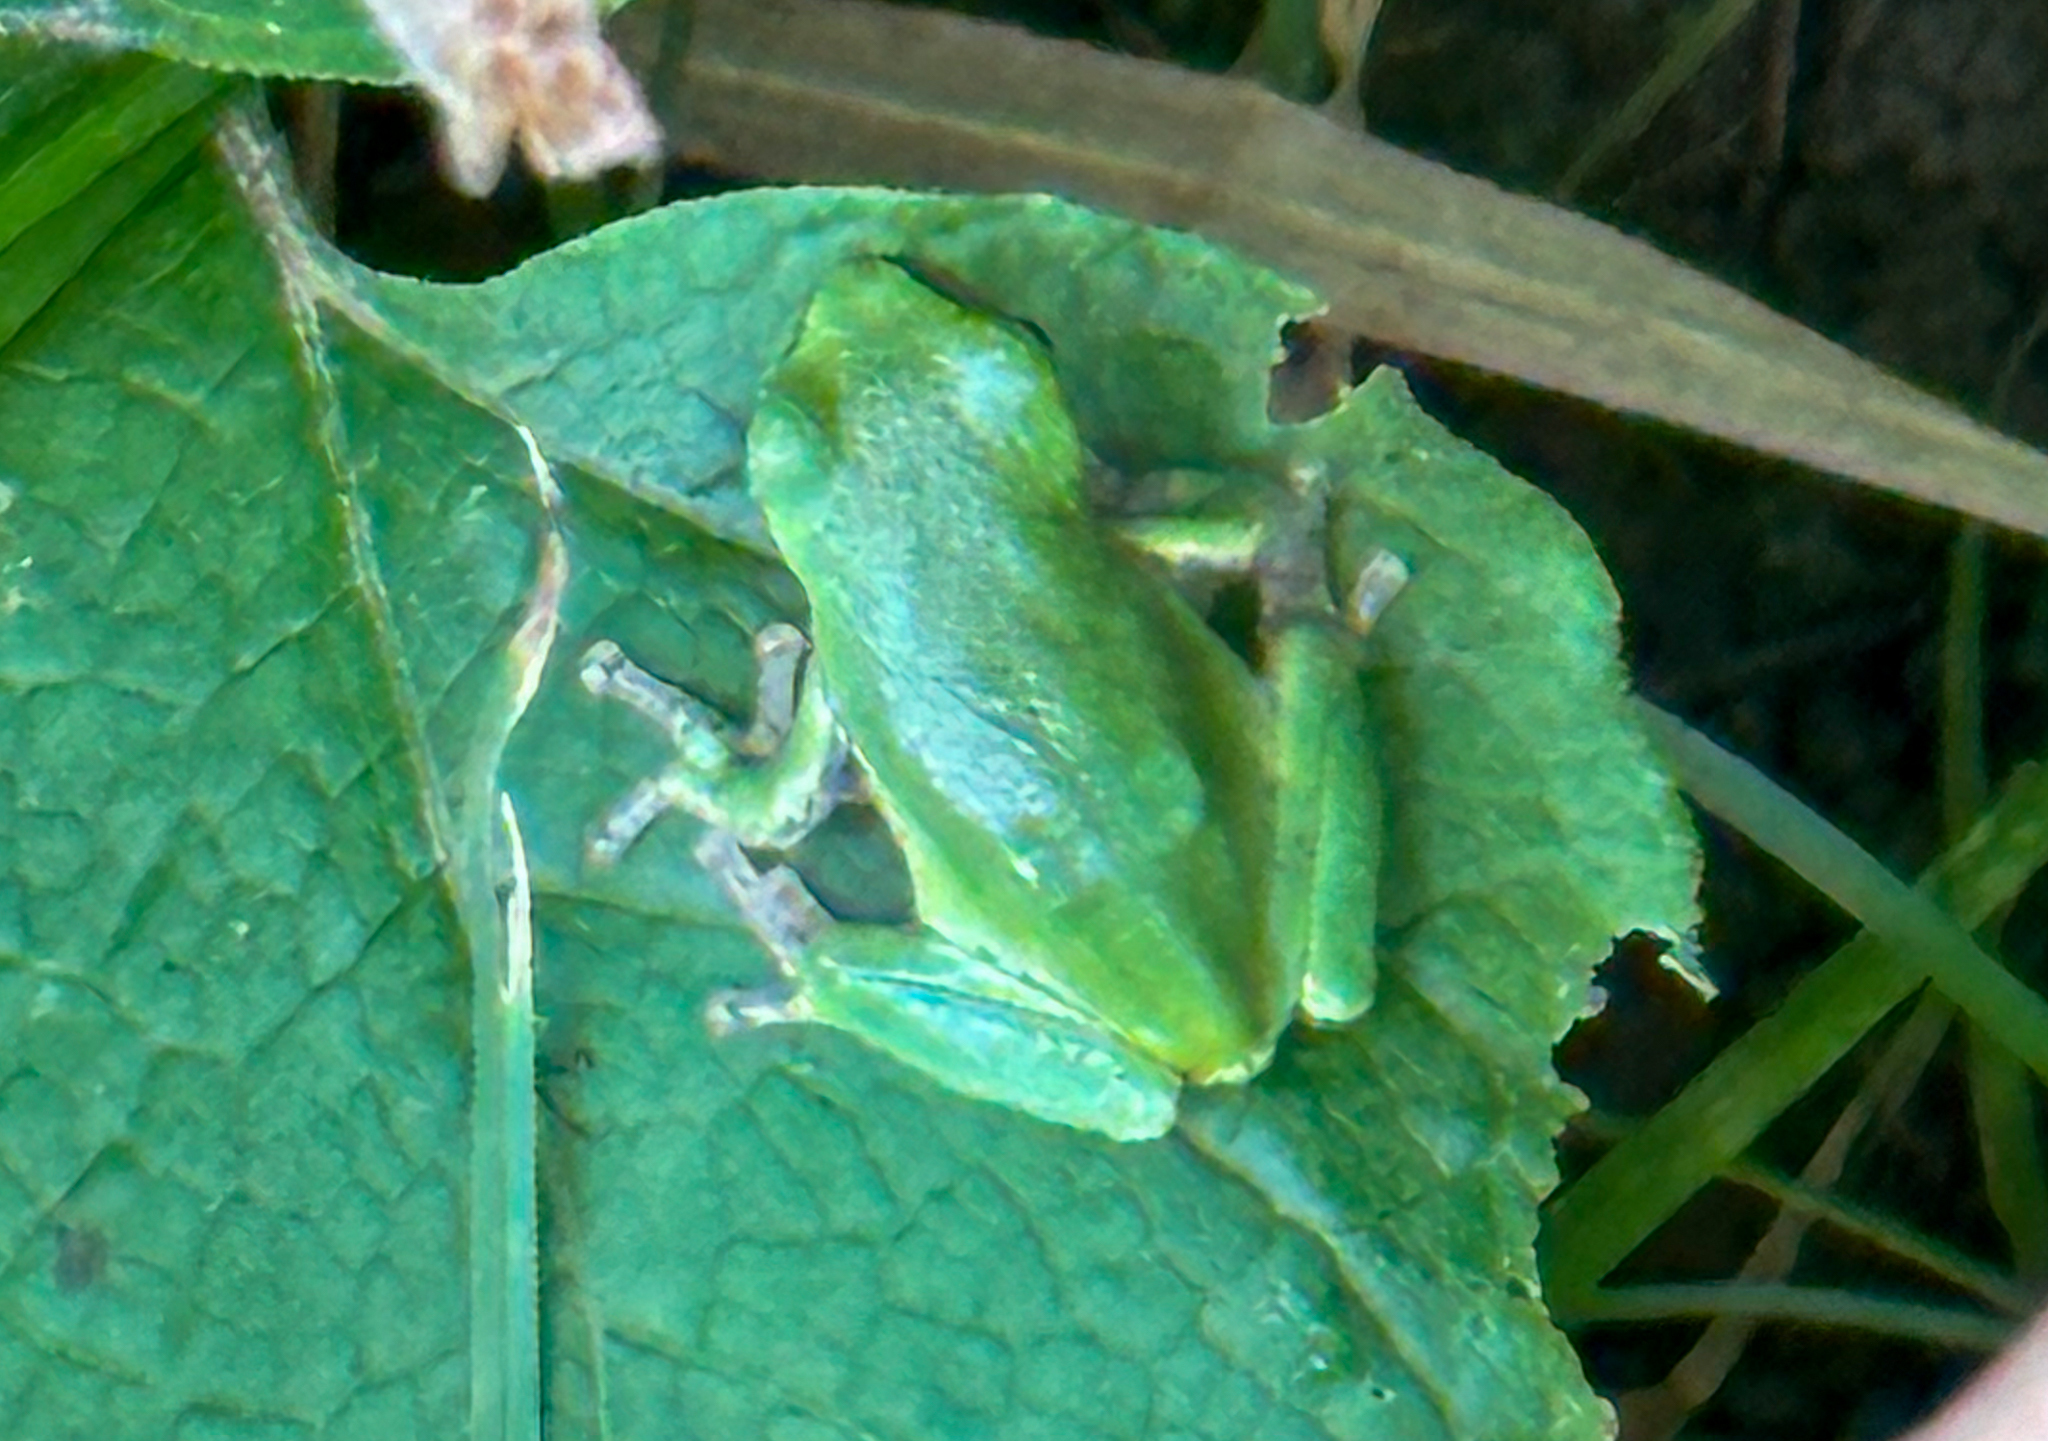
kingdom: Animalia
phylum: Chordata
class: Amphibia
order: Anura
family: Hylidae
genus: Dryophytes
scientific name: Dryophytes versicolor
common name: Gray treefrog
